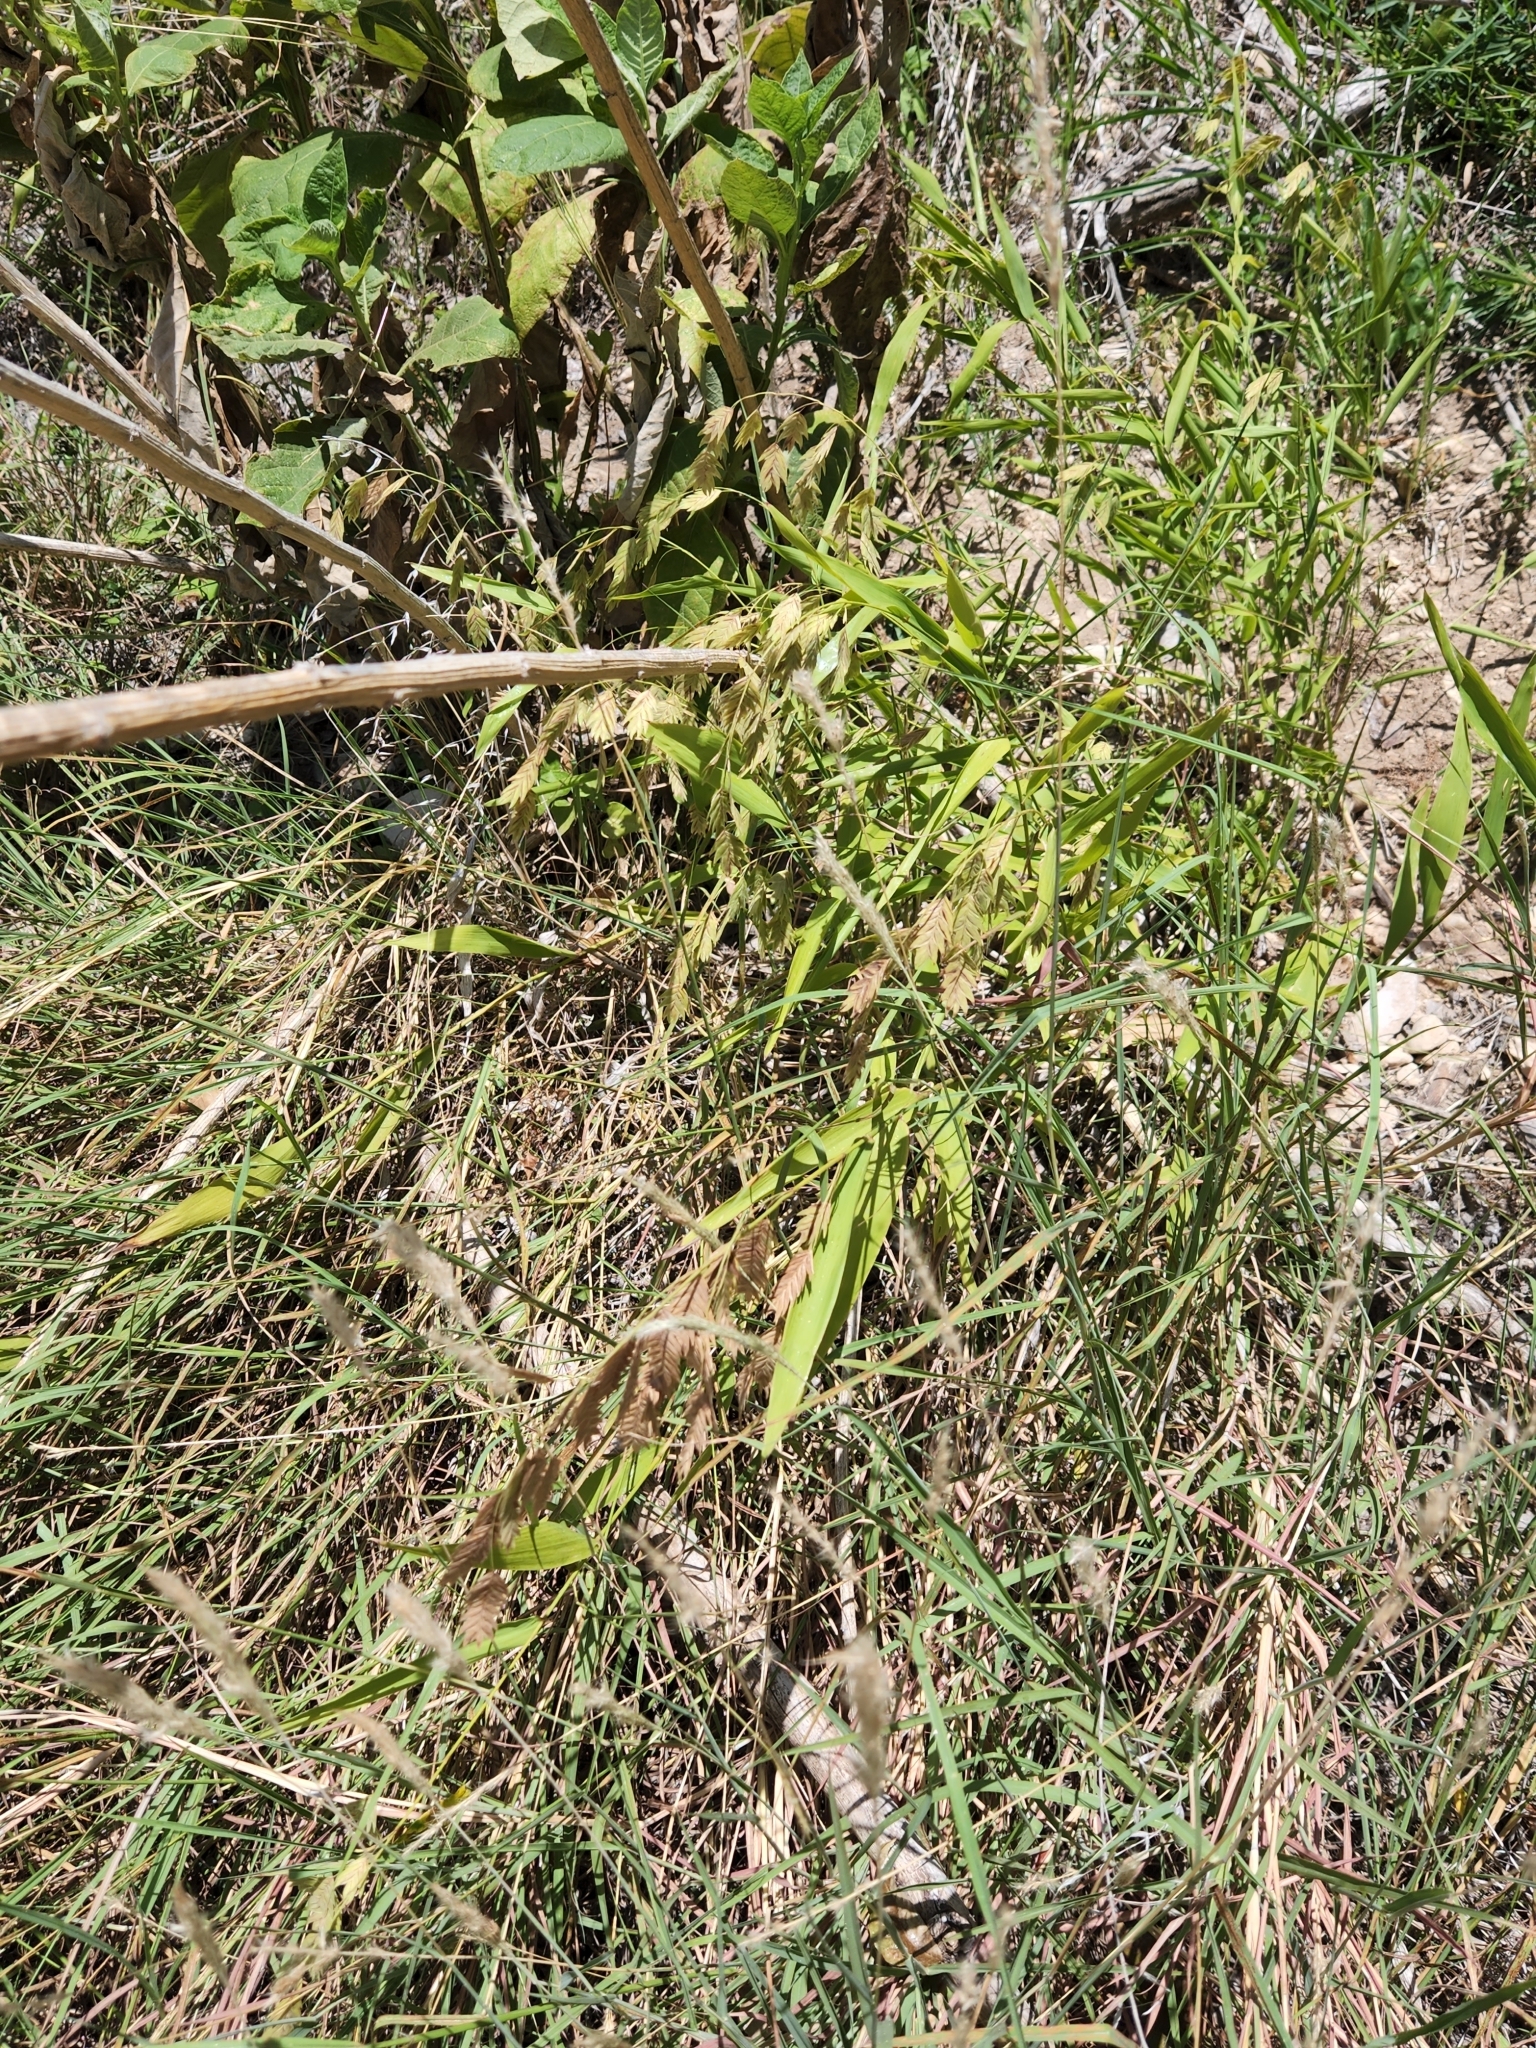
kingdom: Plantae
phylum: Tracheophyta
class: Liliopsida
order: Poales
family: Poaceae
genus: Chasmanthium
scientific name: Chasmanthium latifolium
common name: Broad-leaved chasmanthium
